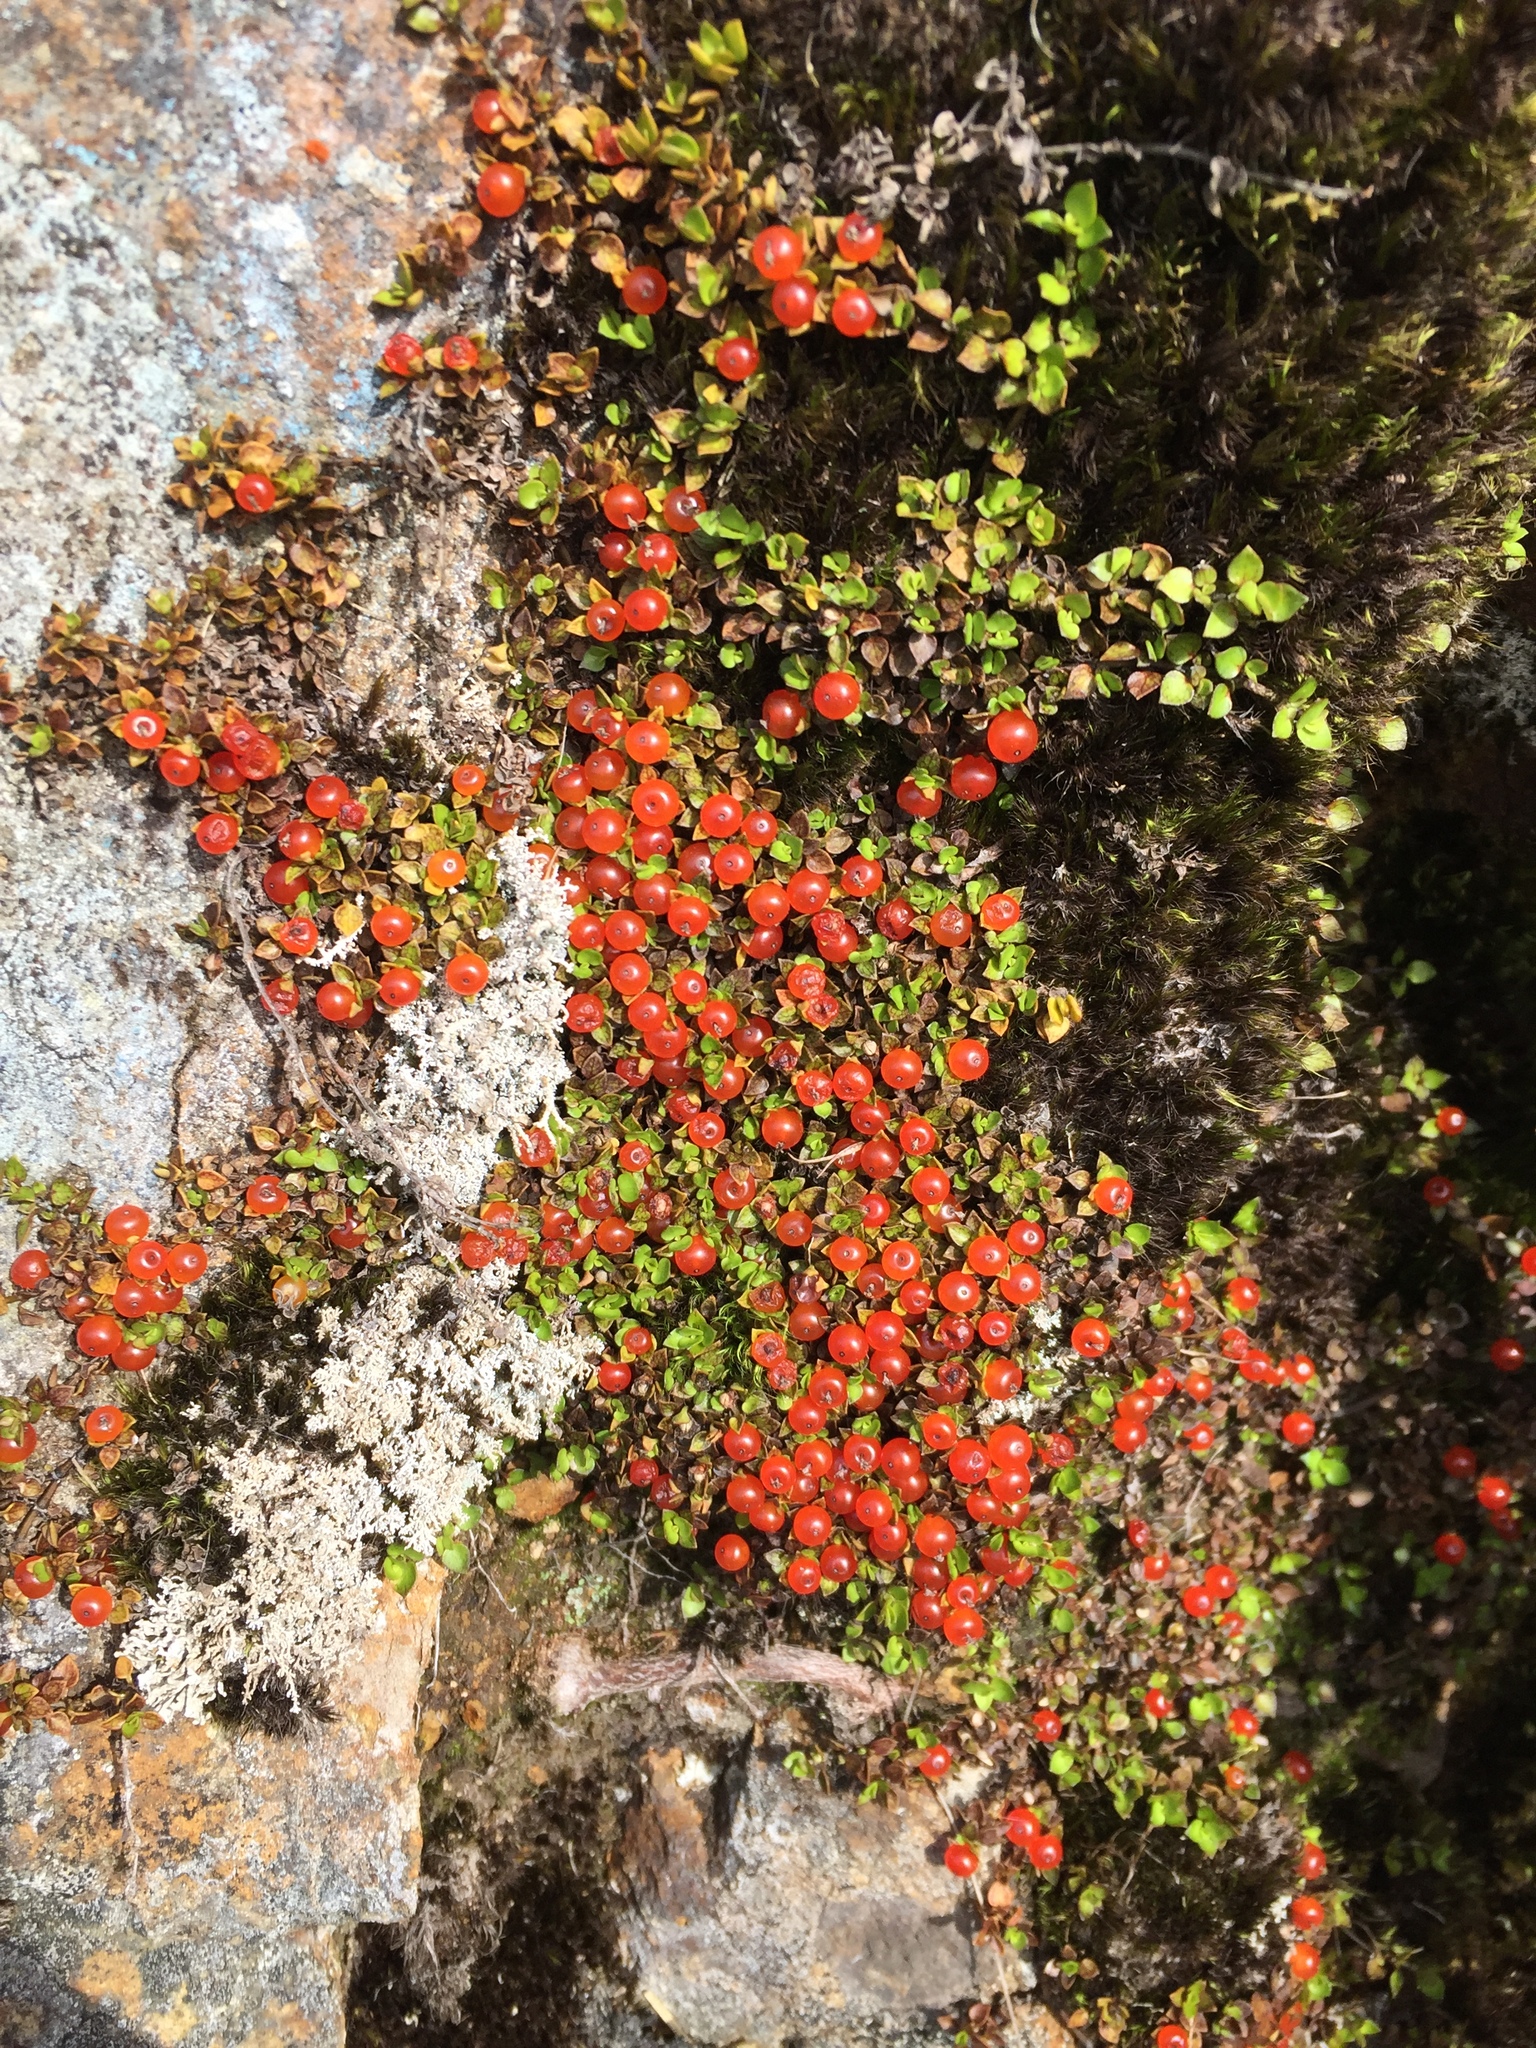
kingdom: Plantae
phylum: Tracheophyta
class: Magnoliopsida
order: Gentianales
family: Rubiaceae
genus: Nertera
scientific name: Nertera granadensis
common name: Beadplant
